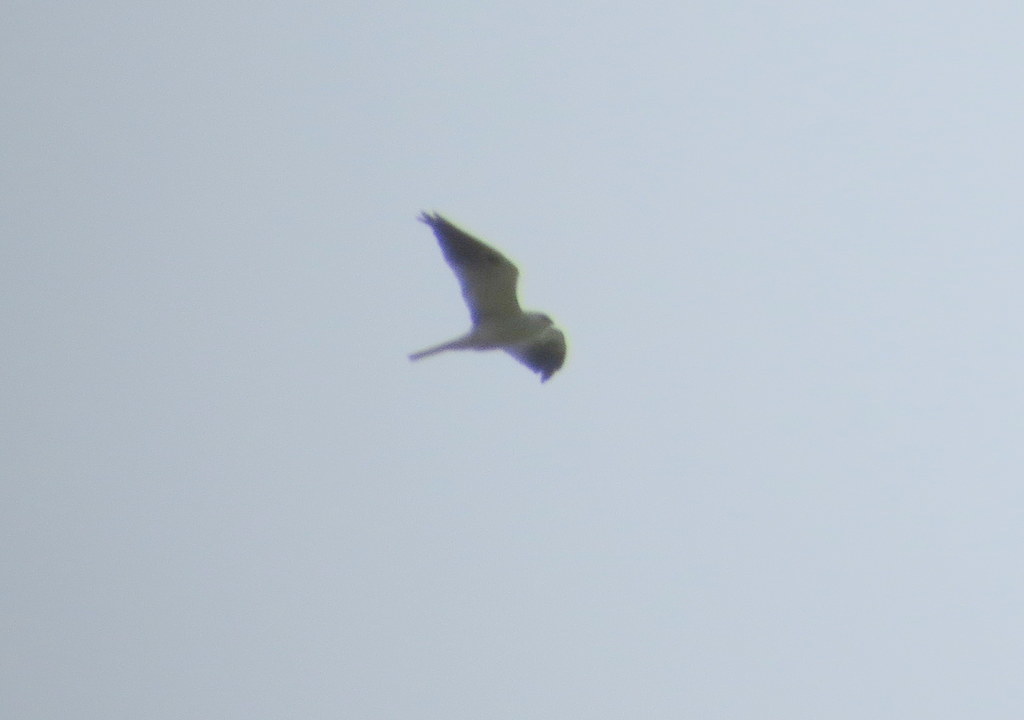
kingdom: Animalia
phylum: Chordata
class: Aves
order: Accipitriformes
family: Accipitridae
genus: Elanus
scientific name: Elanus leucurus
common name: White-tailed kite
